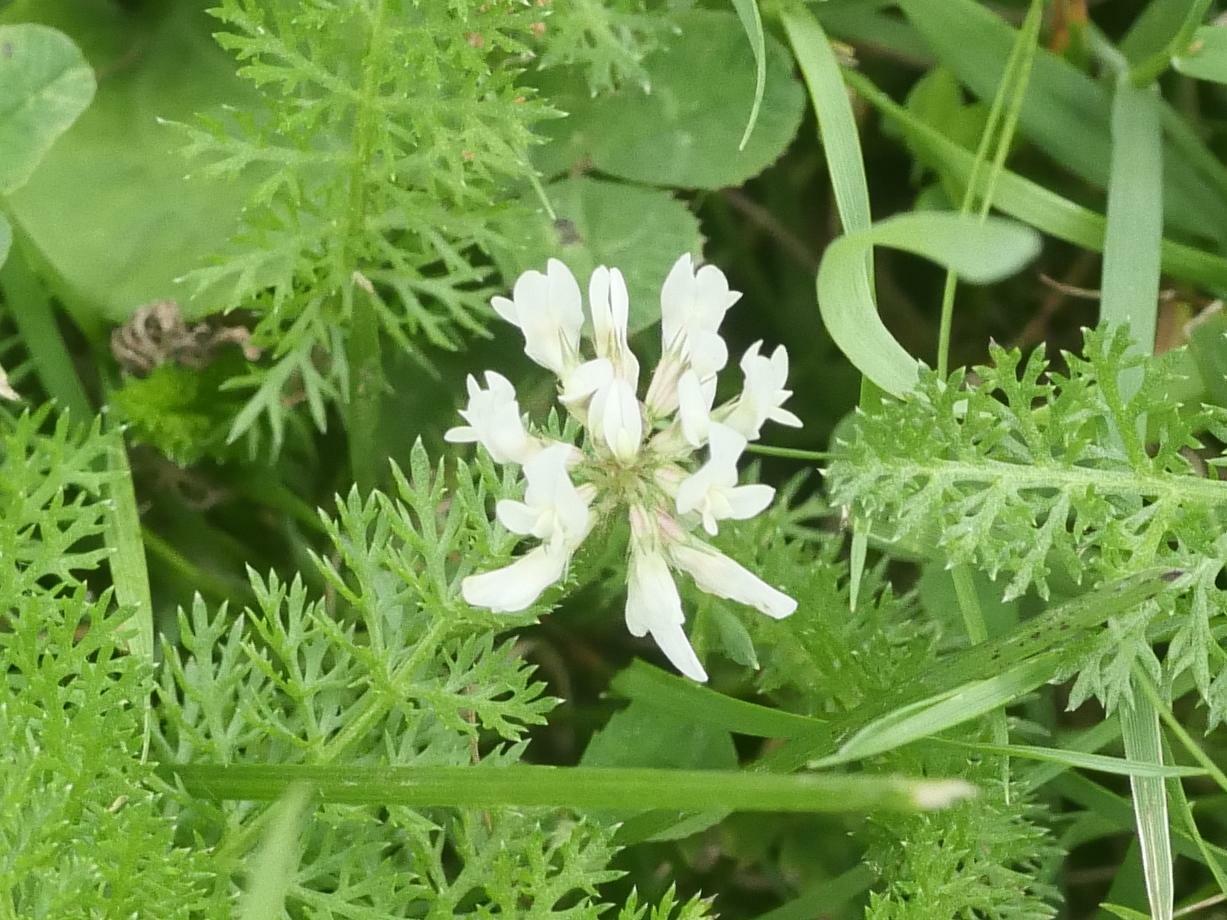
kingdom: Plantae
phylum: Tracheophyta
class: Magnoliopsida
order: Fabales
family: Fabaceae
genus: Trifolium
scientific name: Trifolium repens
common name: White clover
